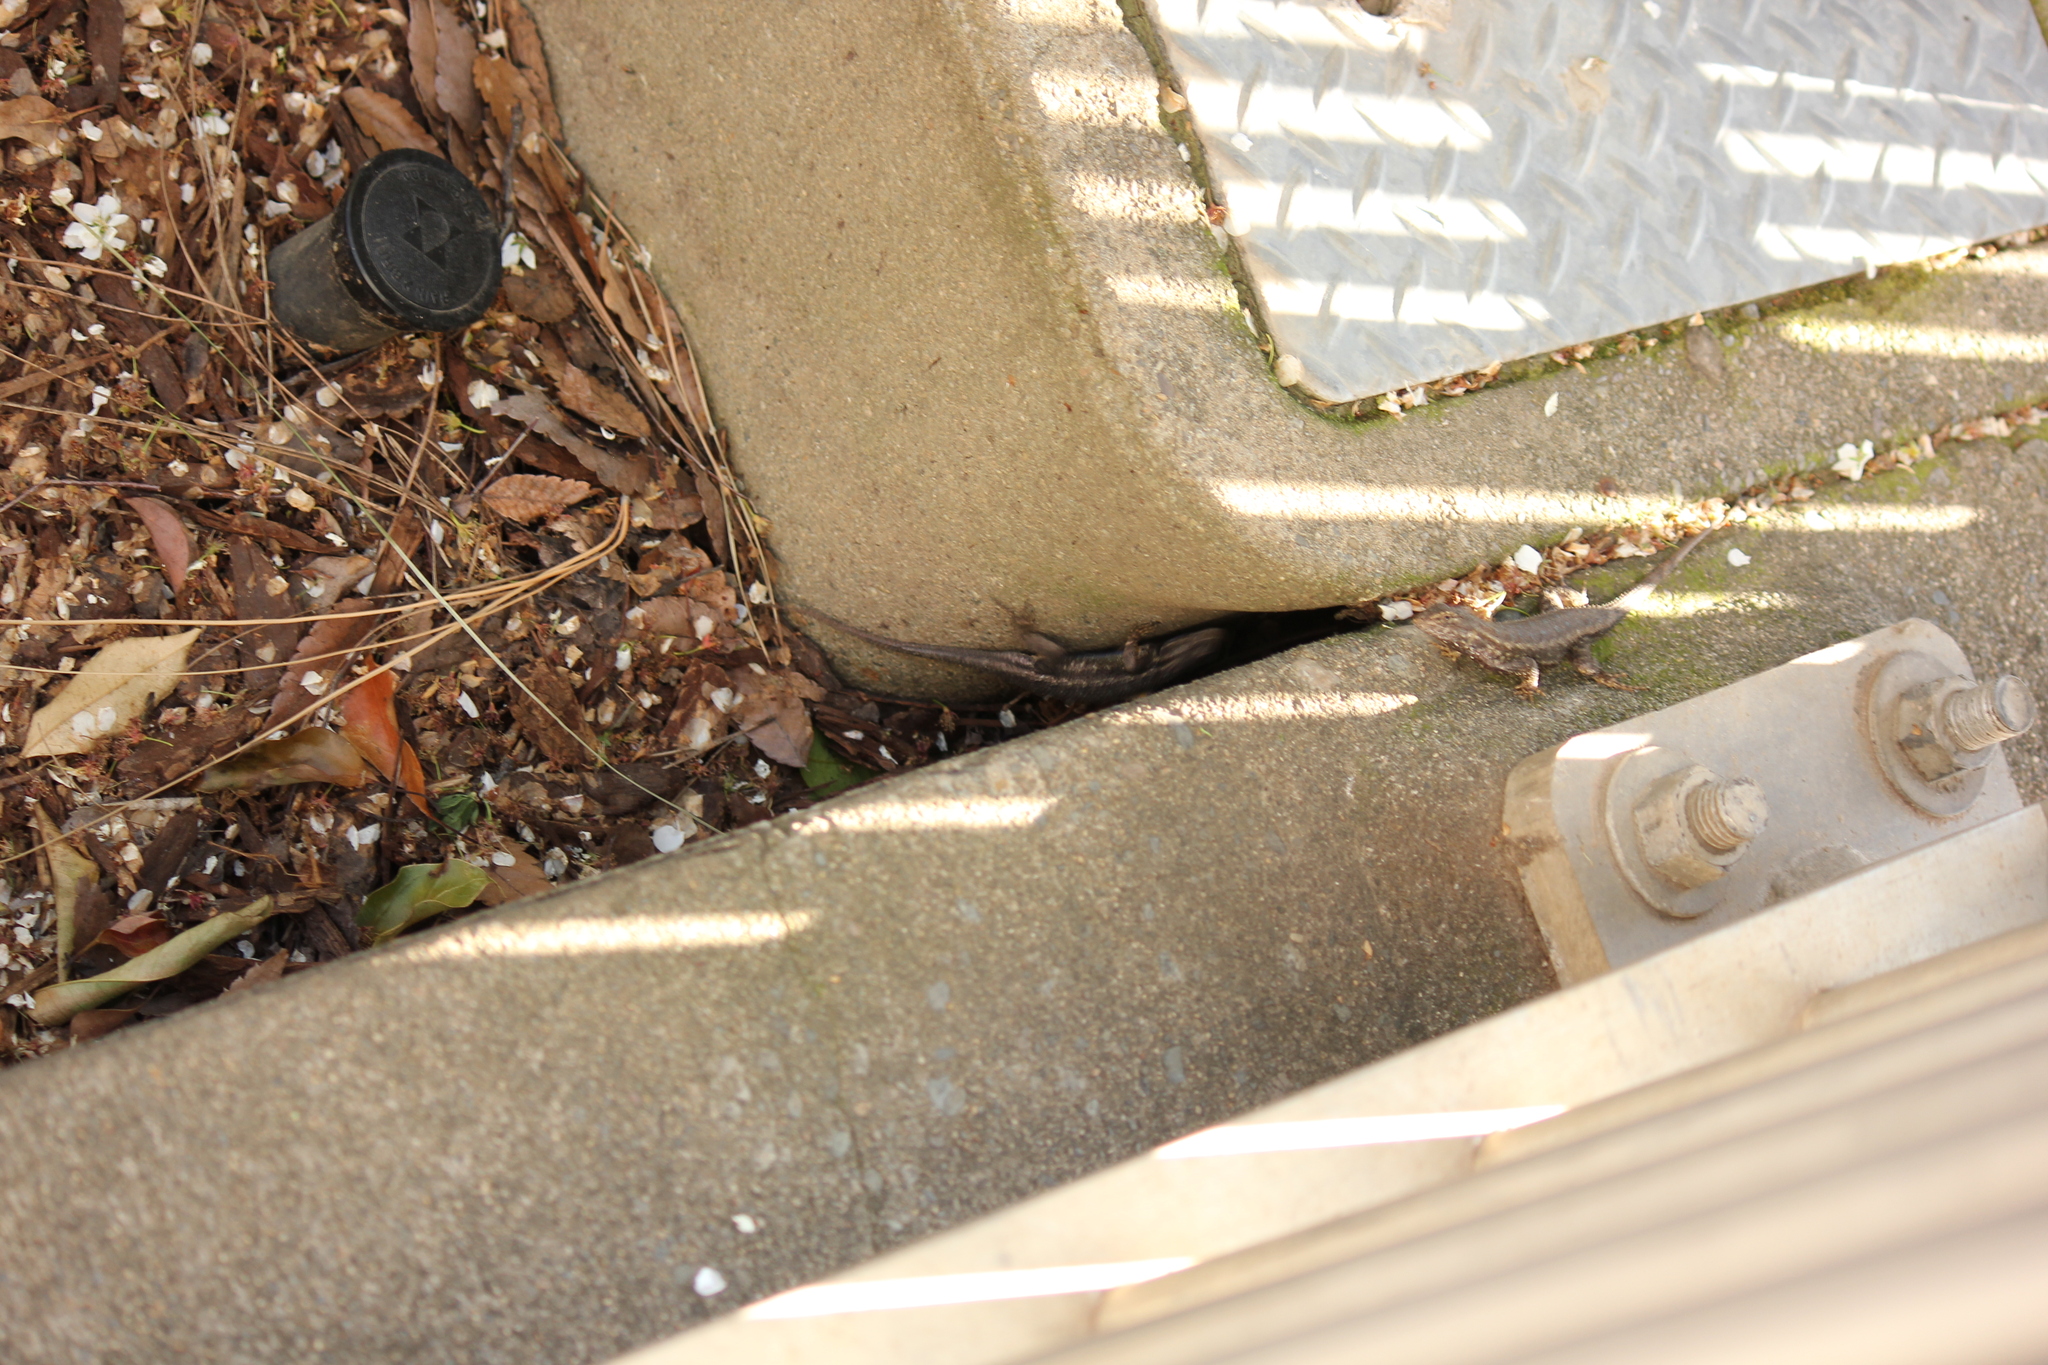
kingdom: Animalia
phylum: Chordata
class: Squamata
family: Phrynosomatidae
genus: Sceloporus
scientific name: Sceloporus occidentalis
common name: Western fence lizard
